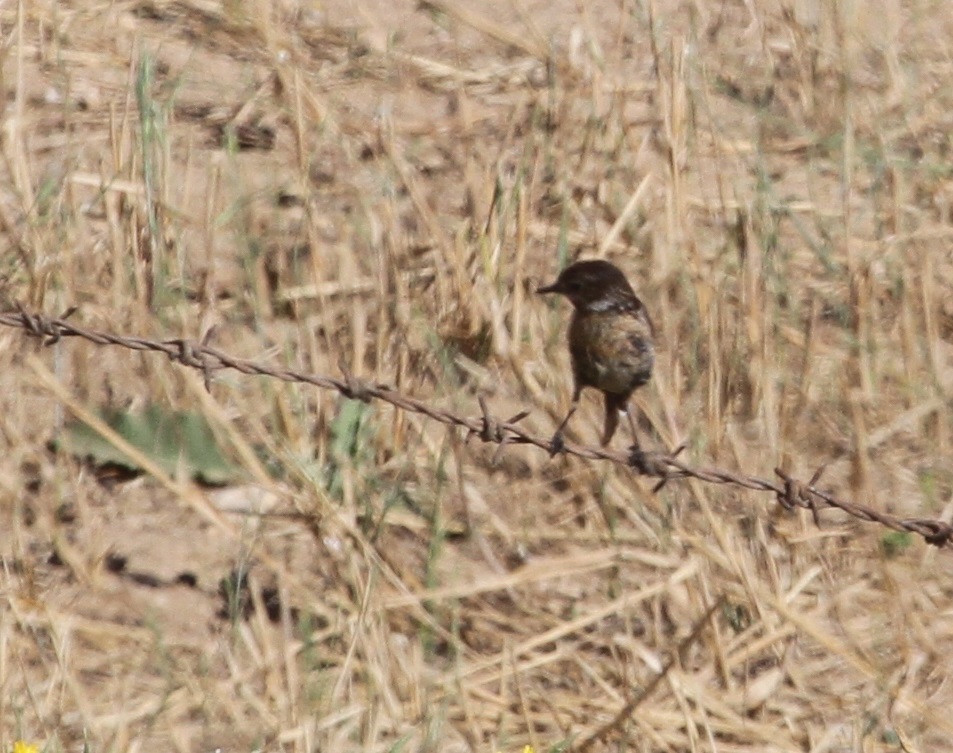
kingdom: Animalia
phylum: Chordata
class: Aves
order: Passeriformes
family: Muscicapidae
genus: Saxicola
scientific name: Saxicola rubicola
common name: European stonechat
